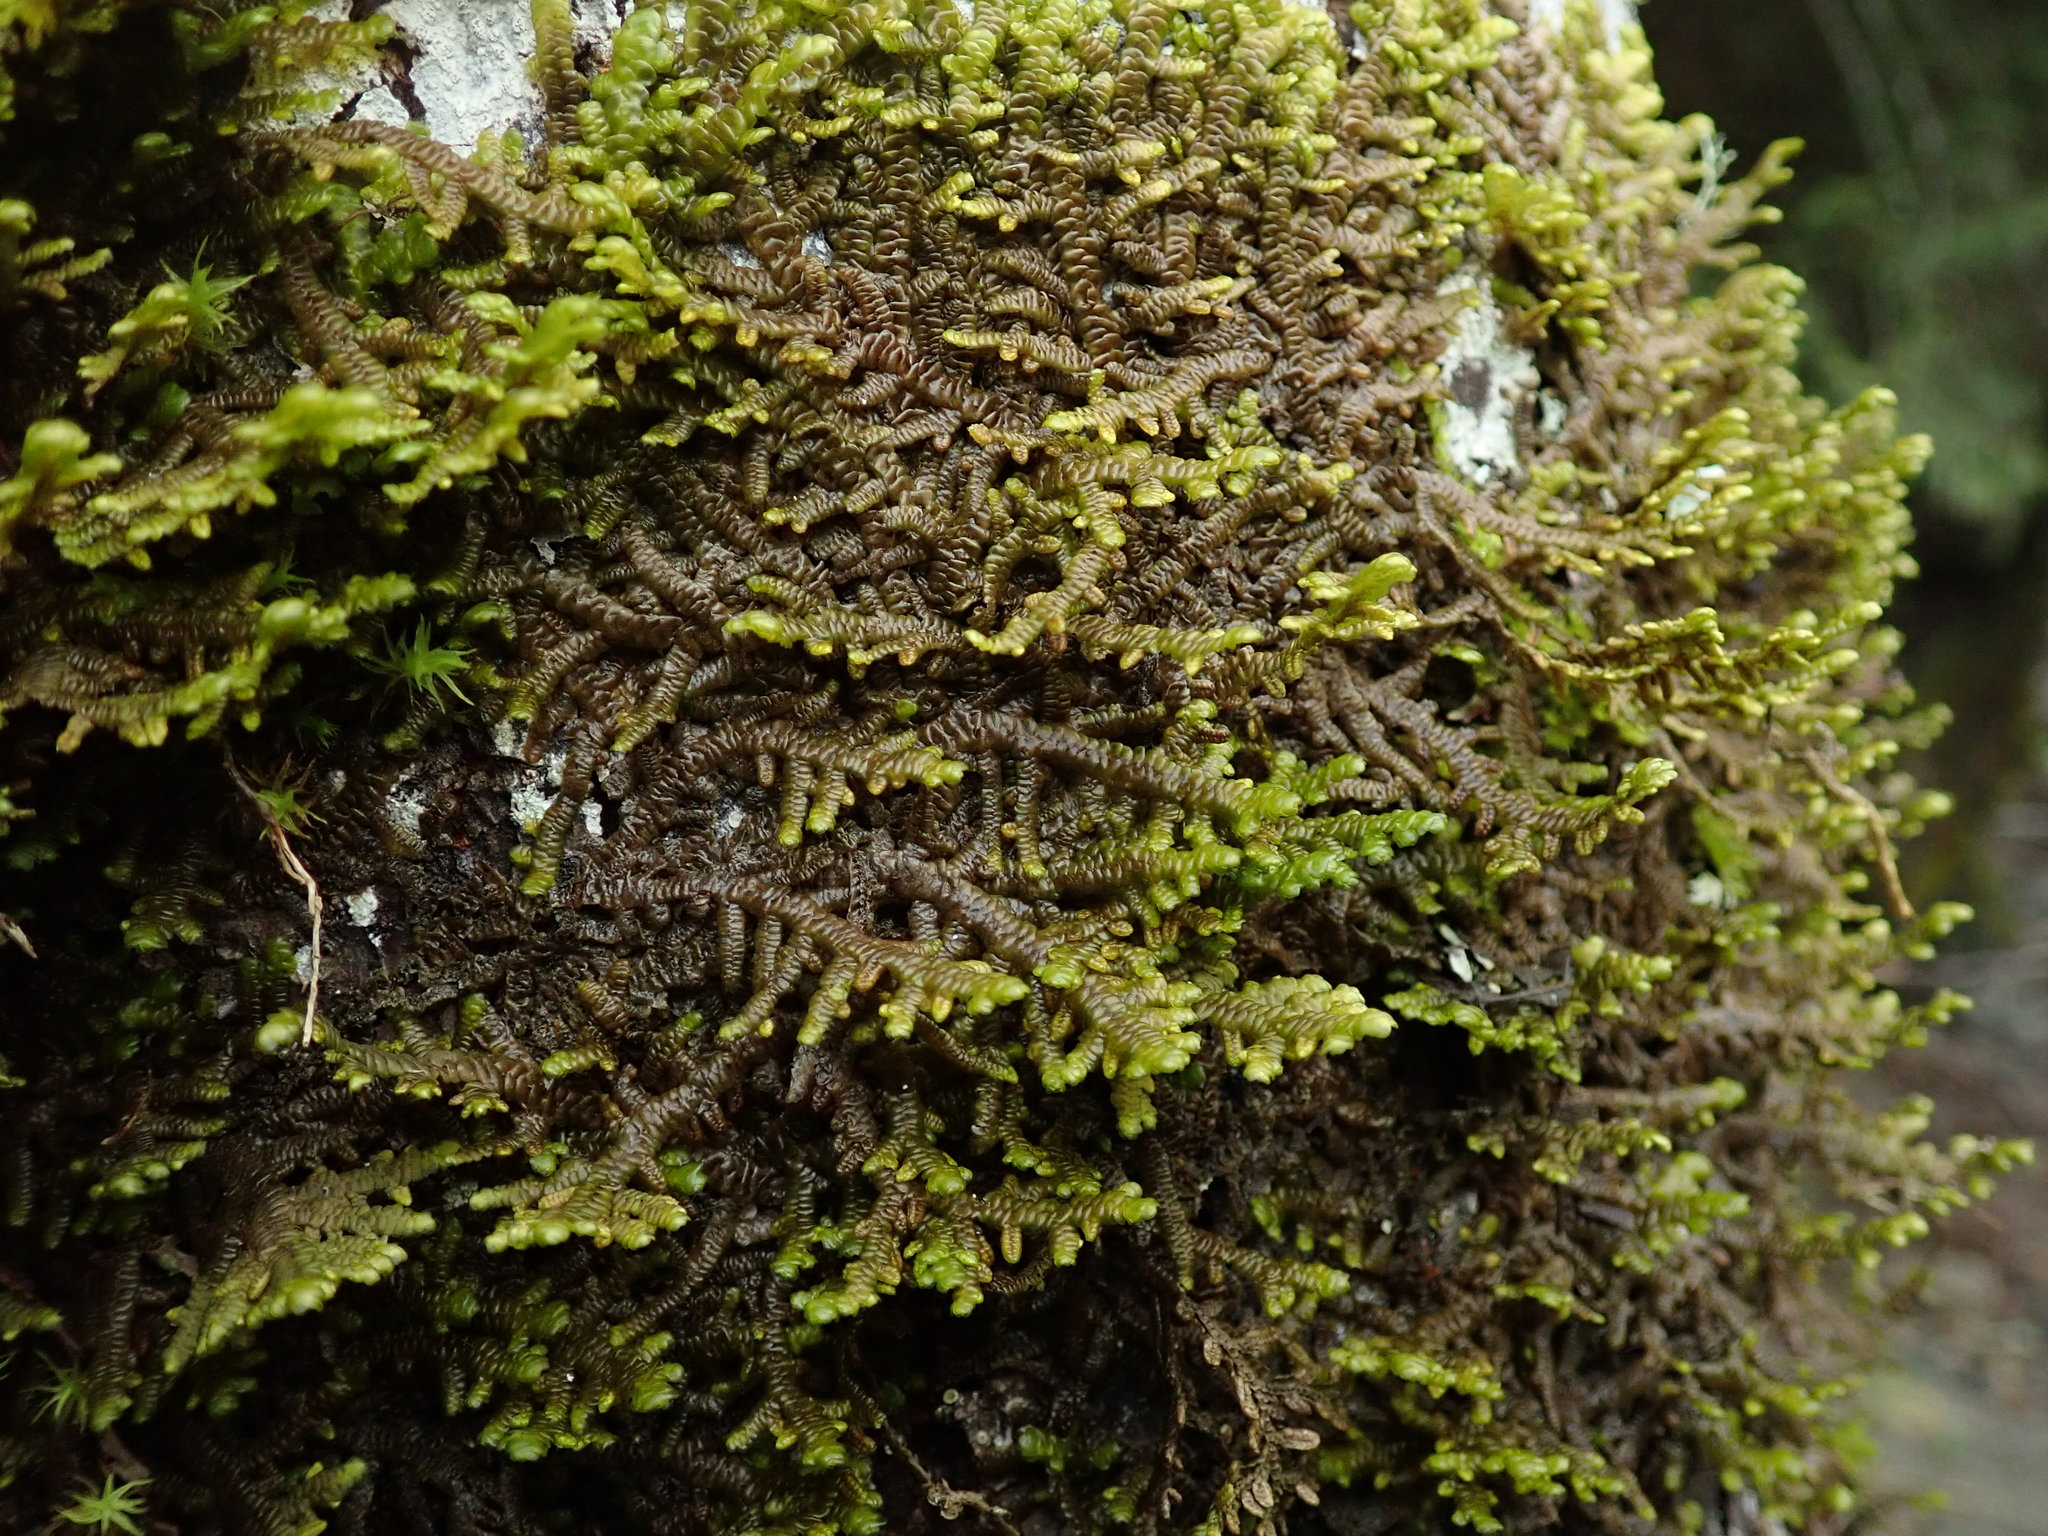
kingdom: Plantae
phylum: Marchantiophyta
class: Jungermanniopsida
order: Porellales
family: Porellaceae
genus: Porella
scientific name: Porella navicularis
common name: Tree ruffle liverwort
